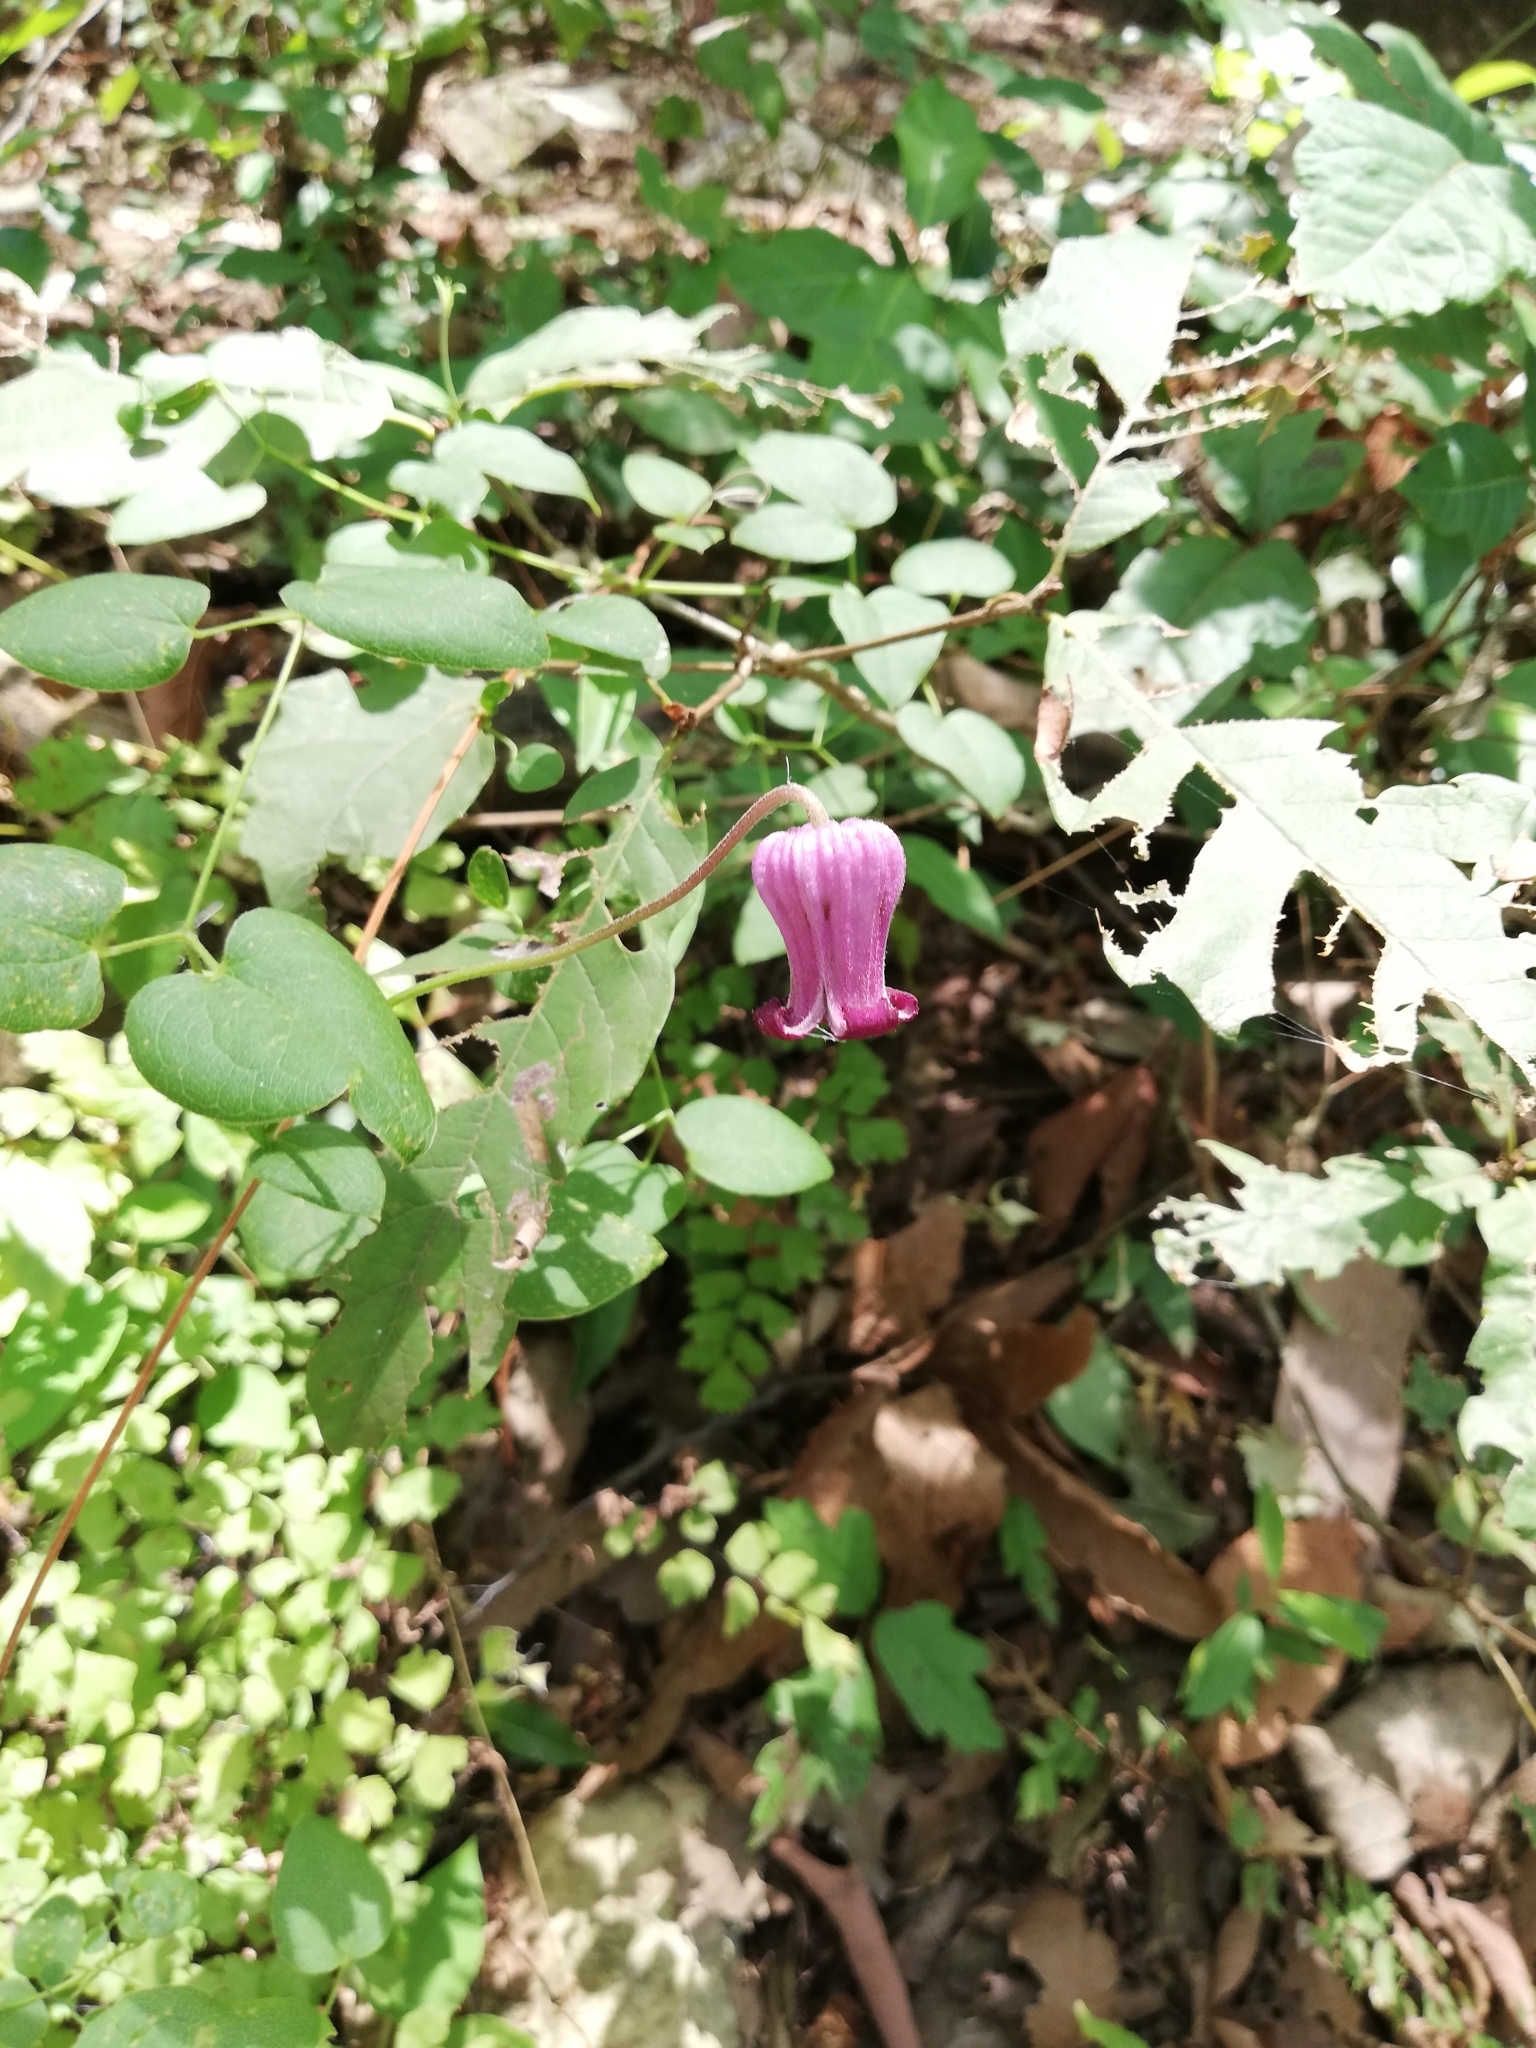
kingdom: Plantae
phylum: Tracheophyta
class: Magnoliopsida
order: Ranunculales
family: Ranunculaceae
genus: Clematis
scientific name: Clematis pitcheri
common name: Bellflower clematis
